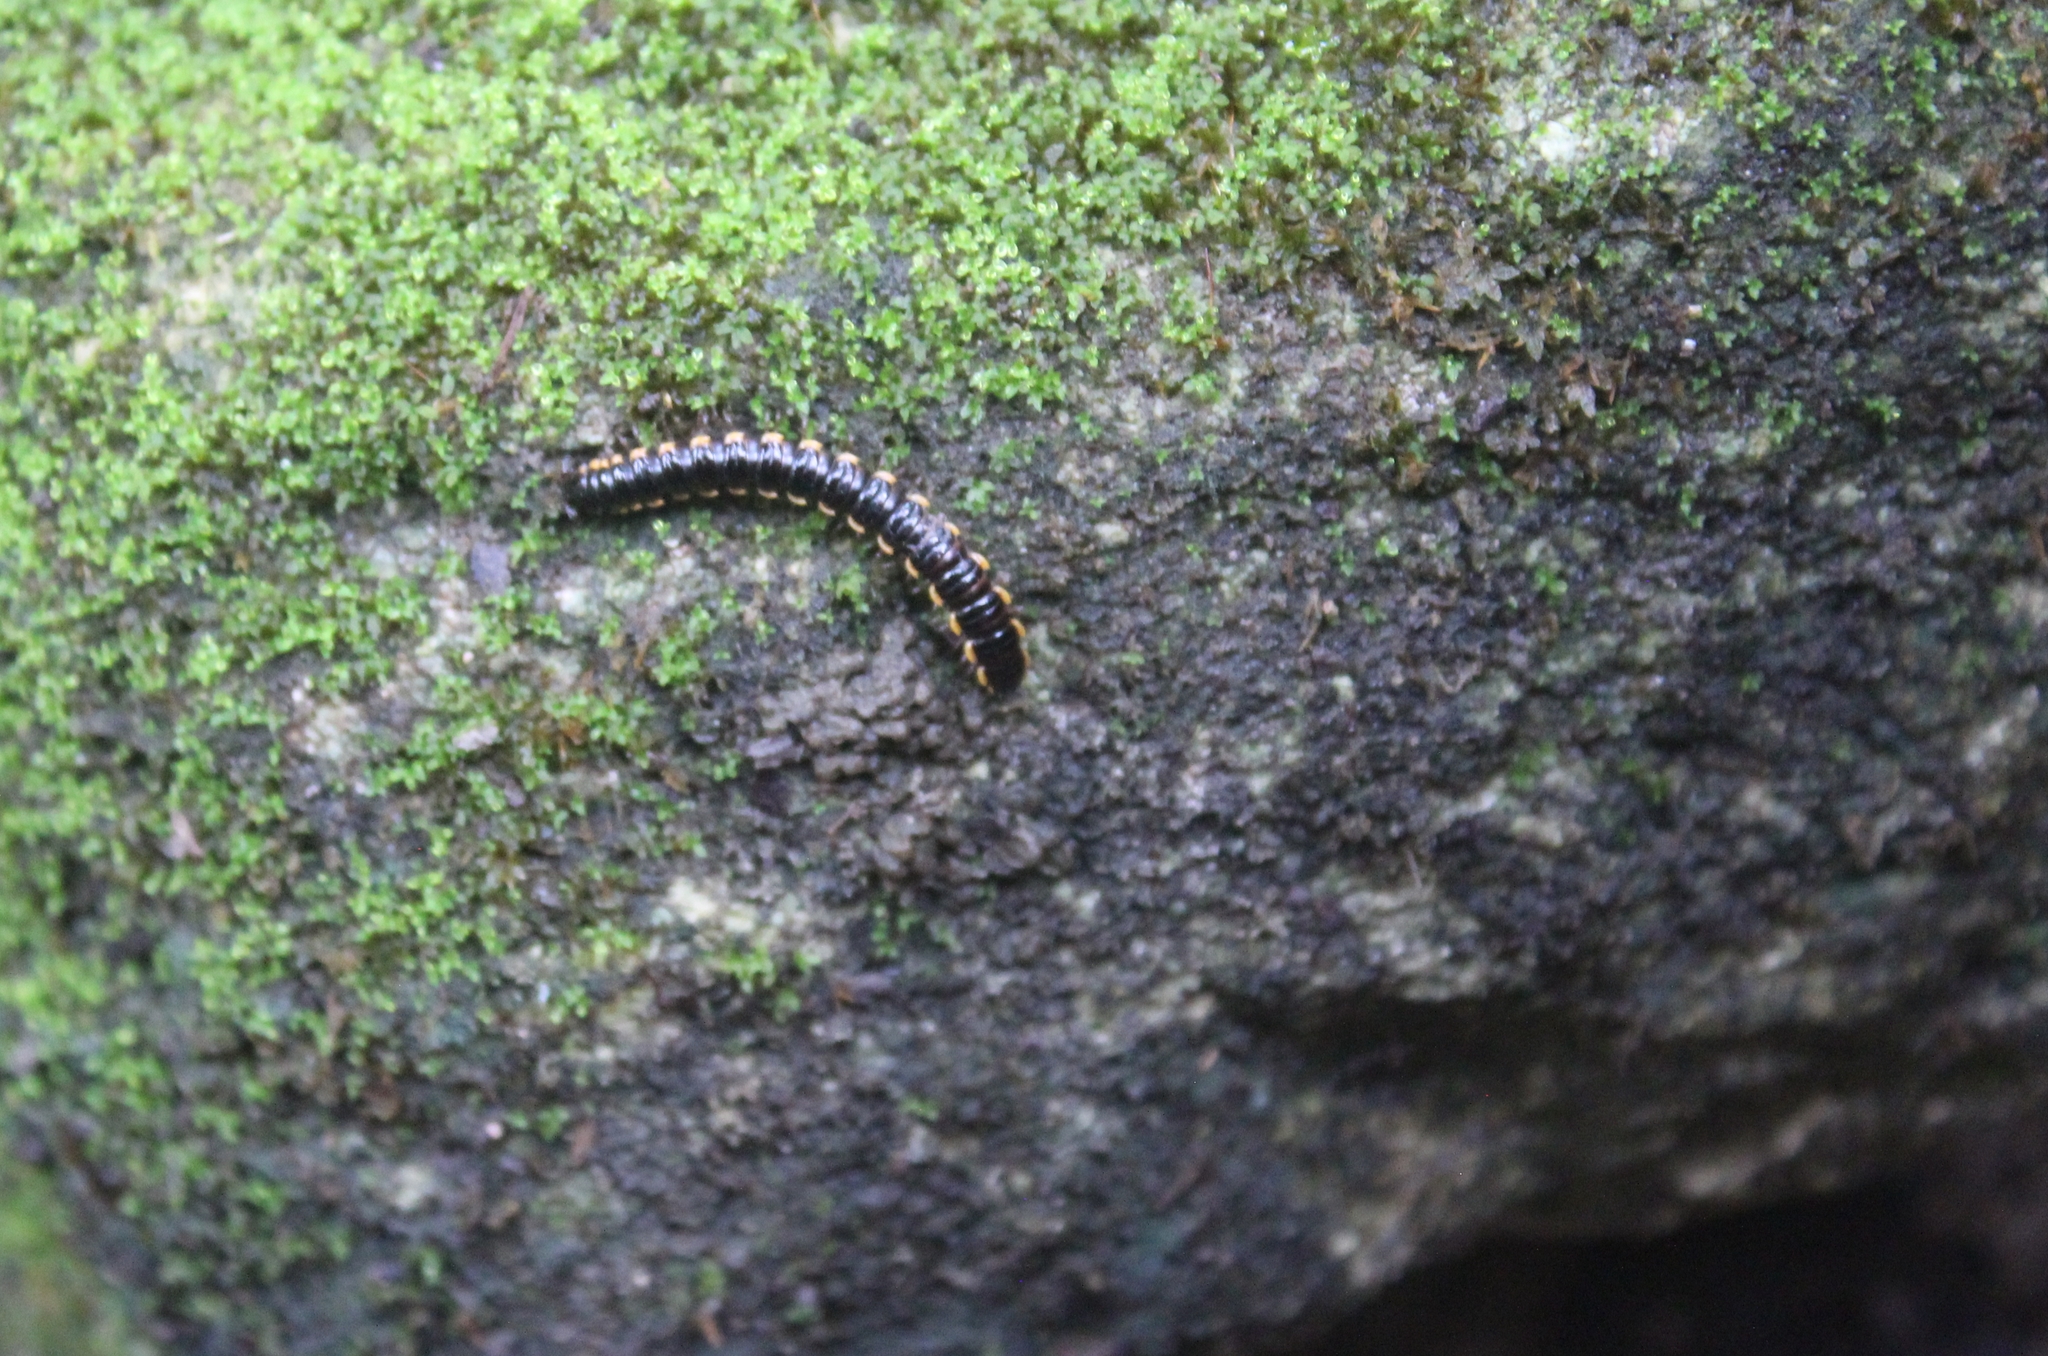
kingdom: Animalia
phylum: Arthropoda
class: Diplopoda
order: Polydesmida
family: Paradoxosomatidae
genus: Orthomorpha
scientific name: Orthomorpha coarctata
